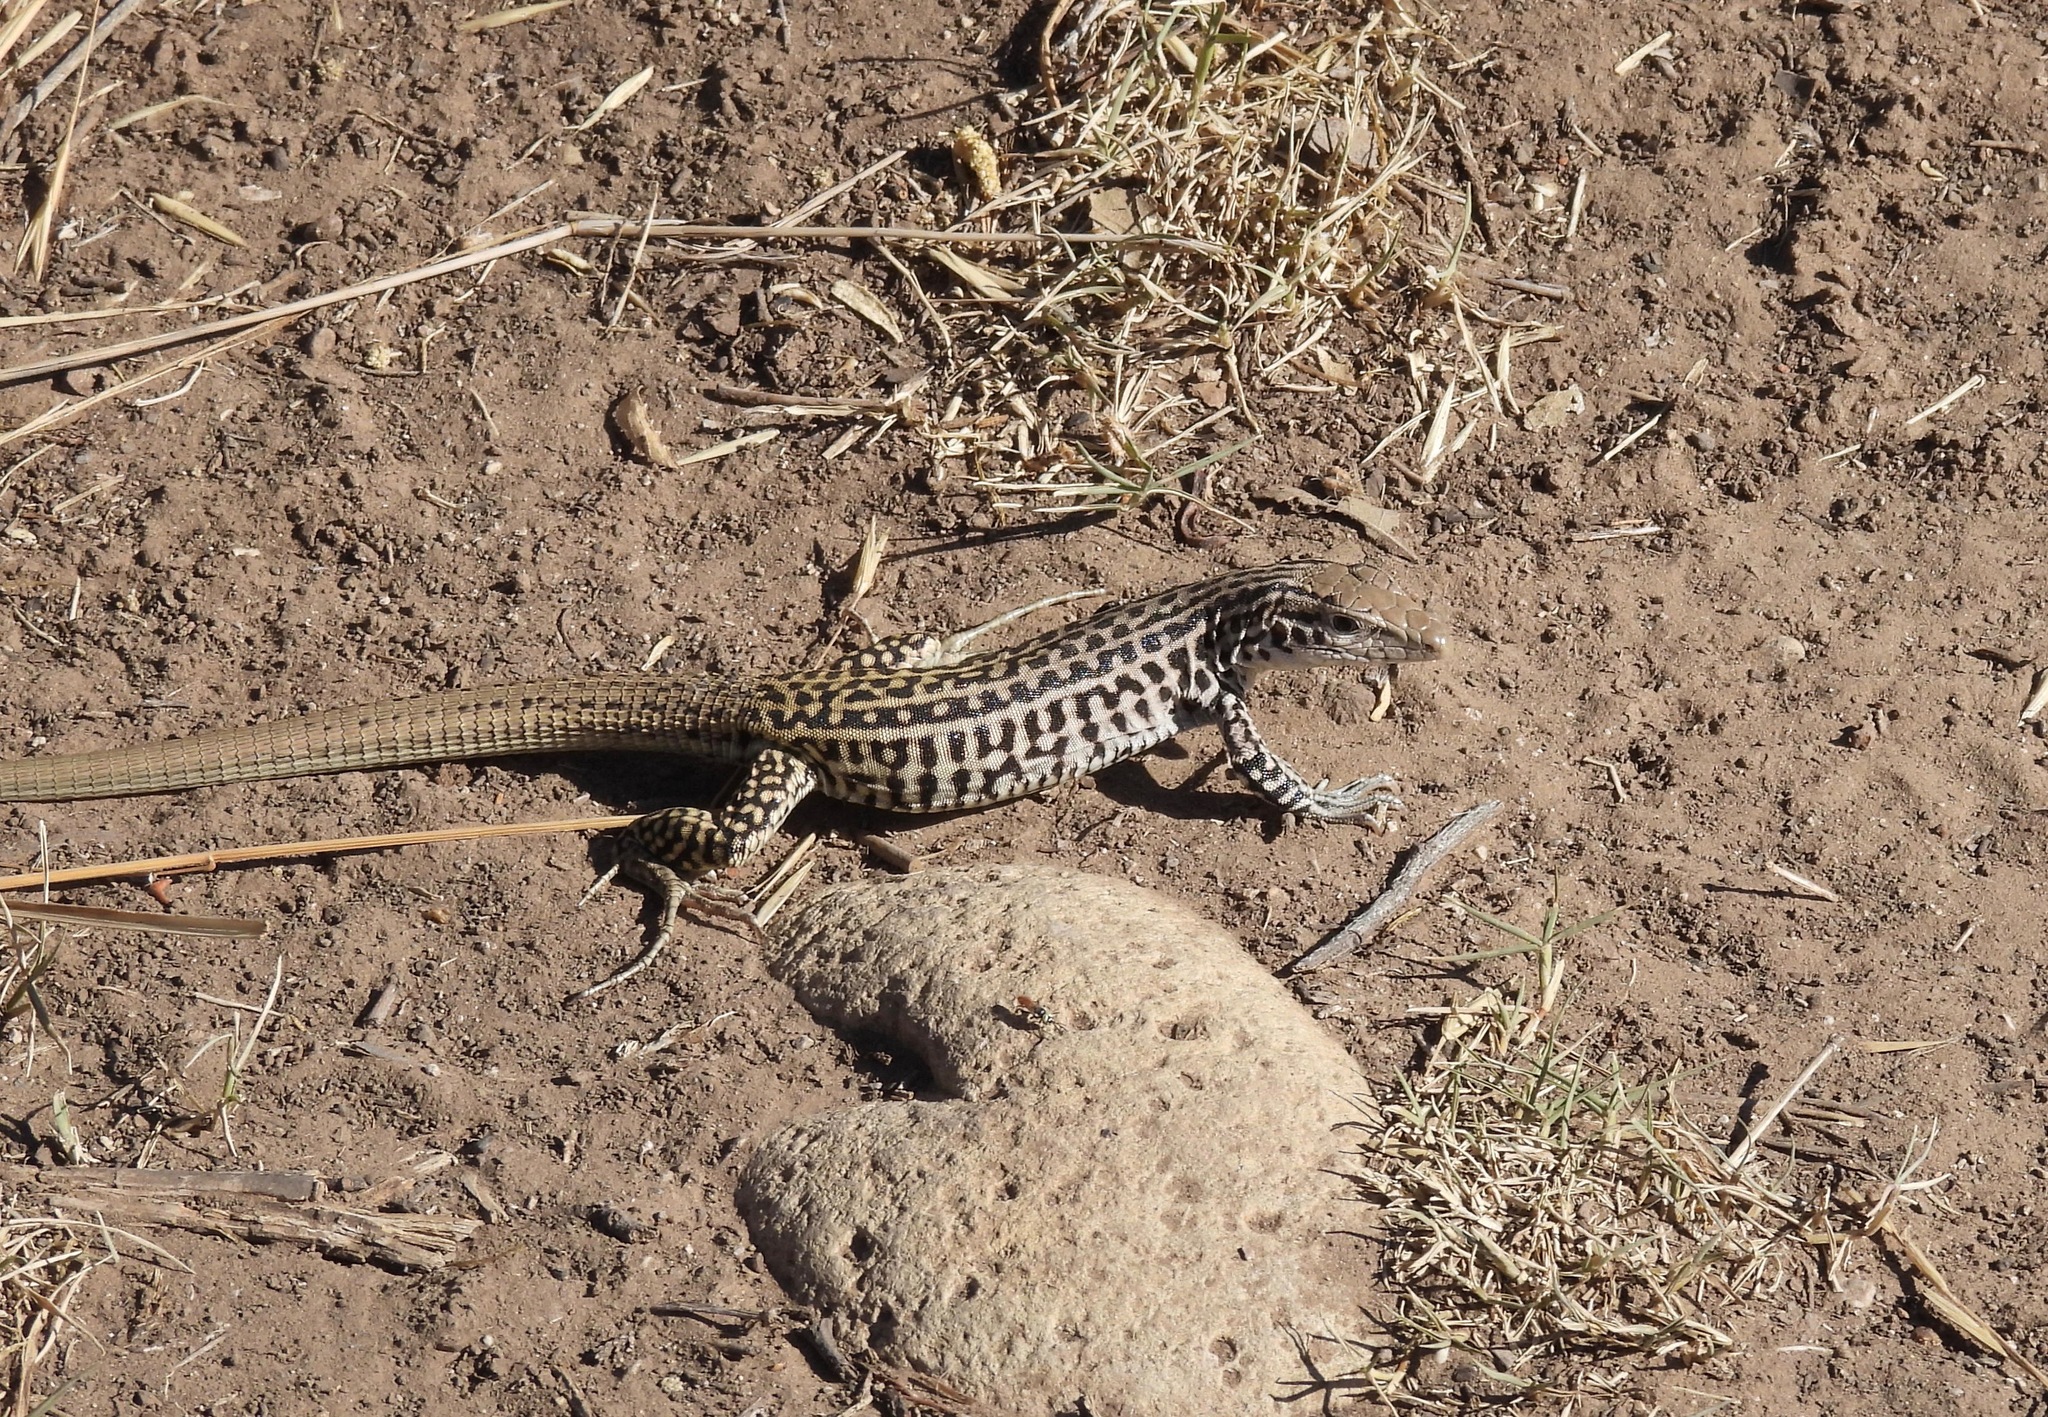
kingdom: Animalia
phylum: Chordata
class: Squamata
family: Teiidae
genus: Aspidoscelis
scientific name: Aspidoscelis tesselatus
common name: Common checkered whiptail [tesselata]
